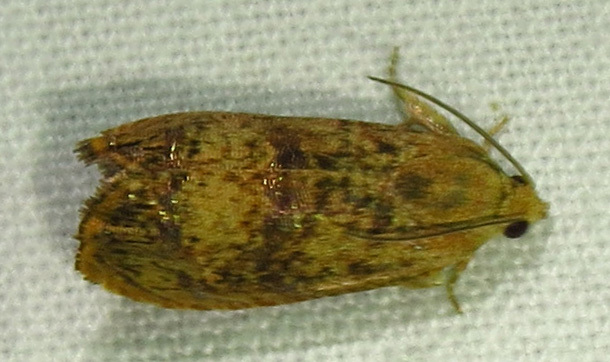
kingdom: Animalia
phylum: Arthropoda
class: Insecta
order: Lepidoptera
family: Tortricidae
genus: Cydia
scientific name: Cydia latiferreana
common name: Filbertworm moth
